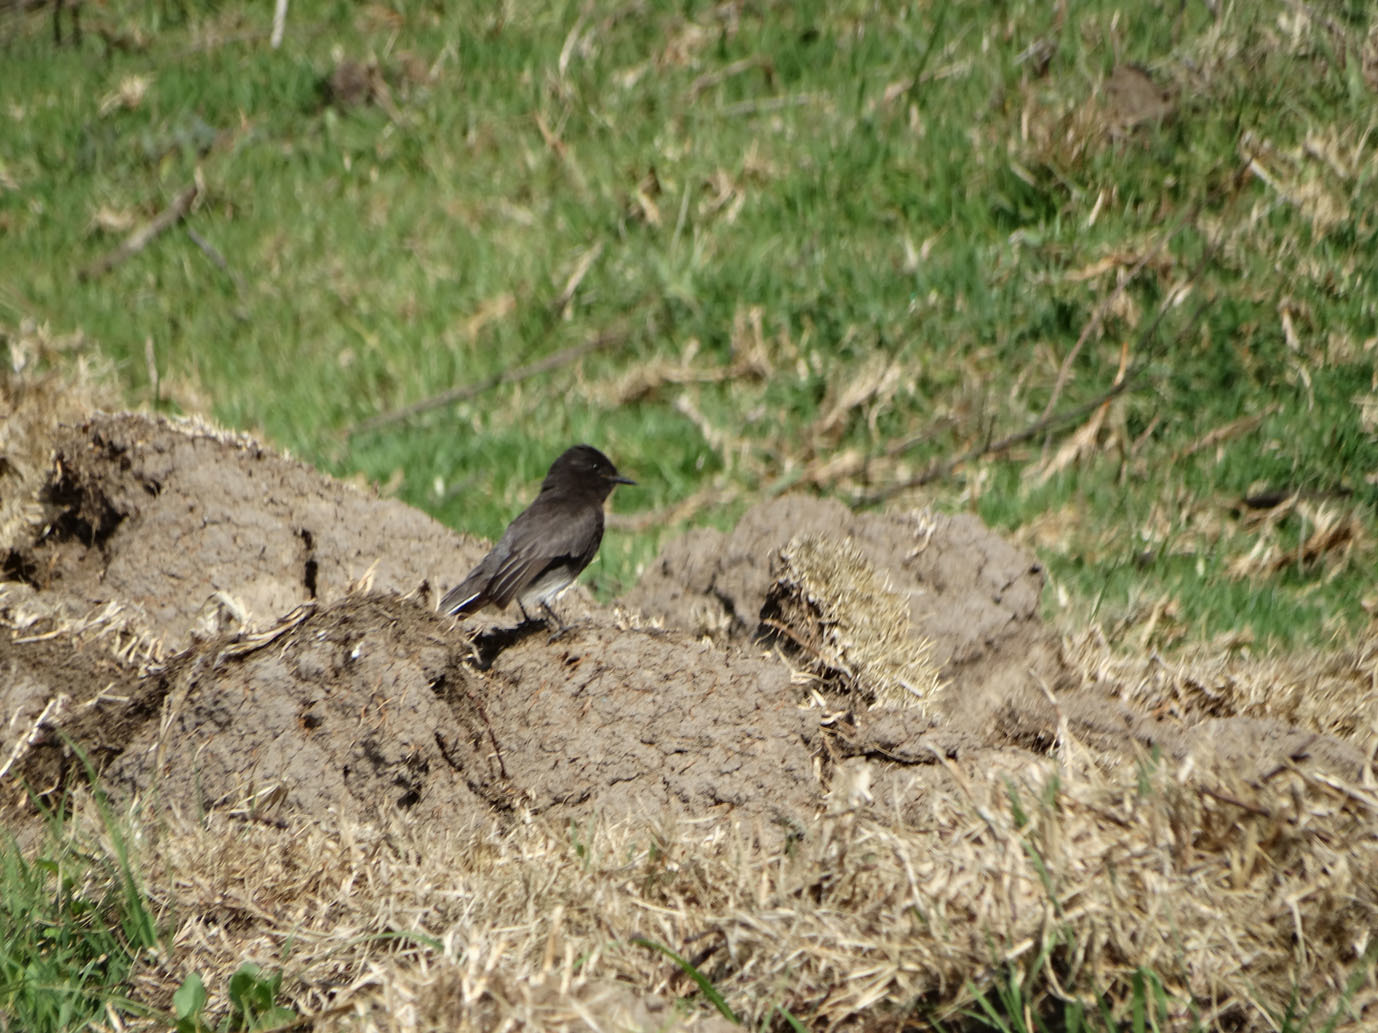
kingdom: Animalia
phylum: Chordata
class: Aves
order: Passeriformes
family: Tyrannidae
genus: Sayornis
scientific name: Sayornis nigricans
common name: Black phoebe
